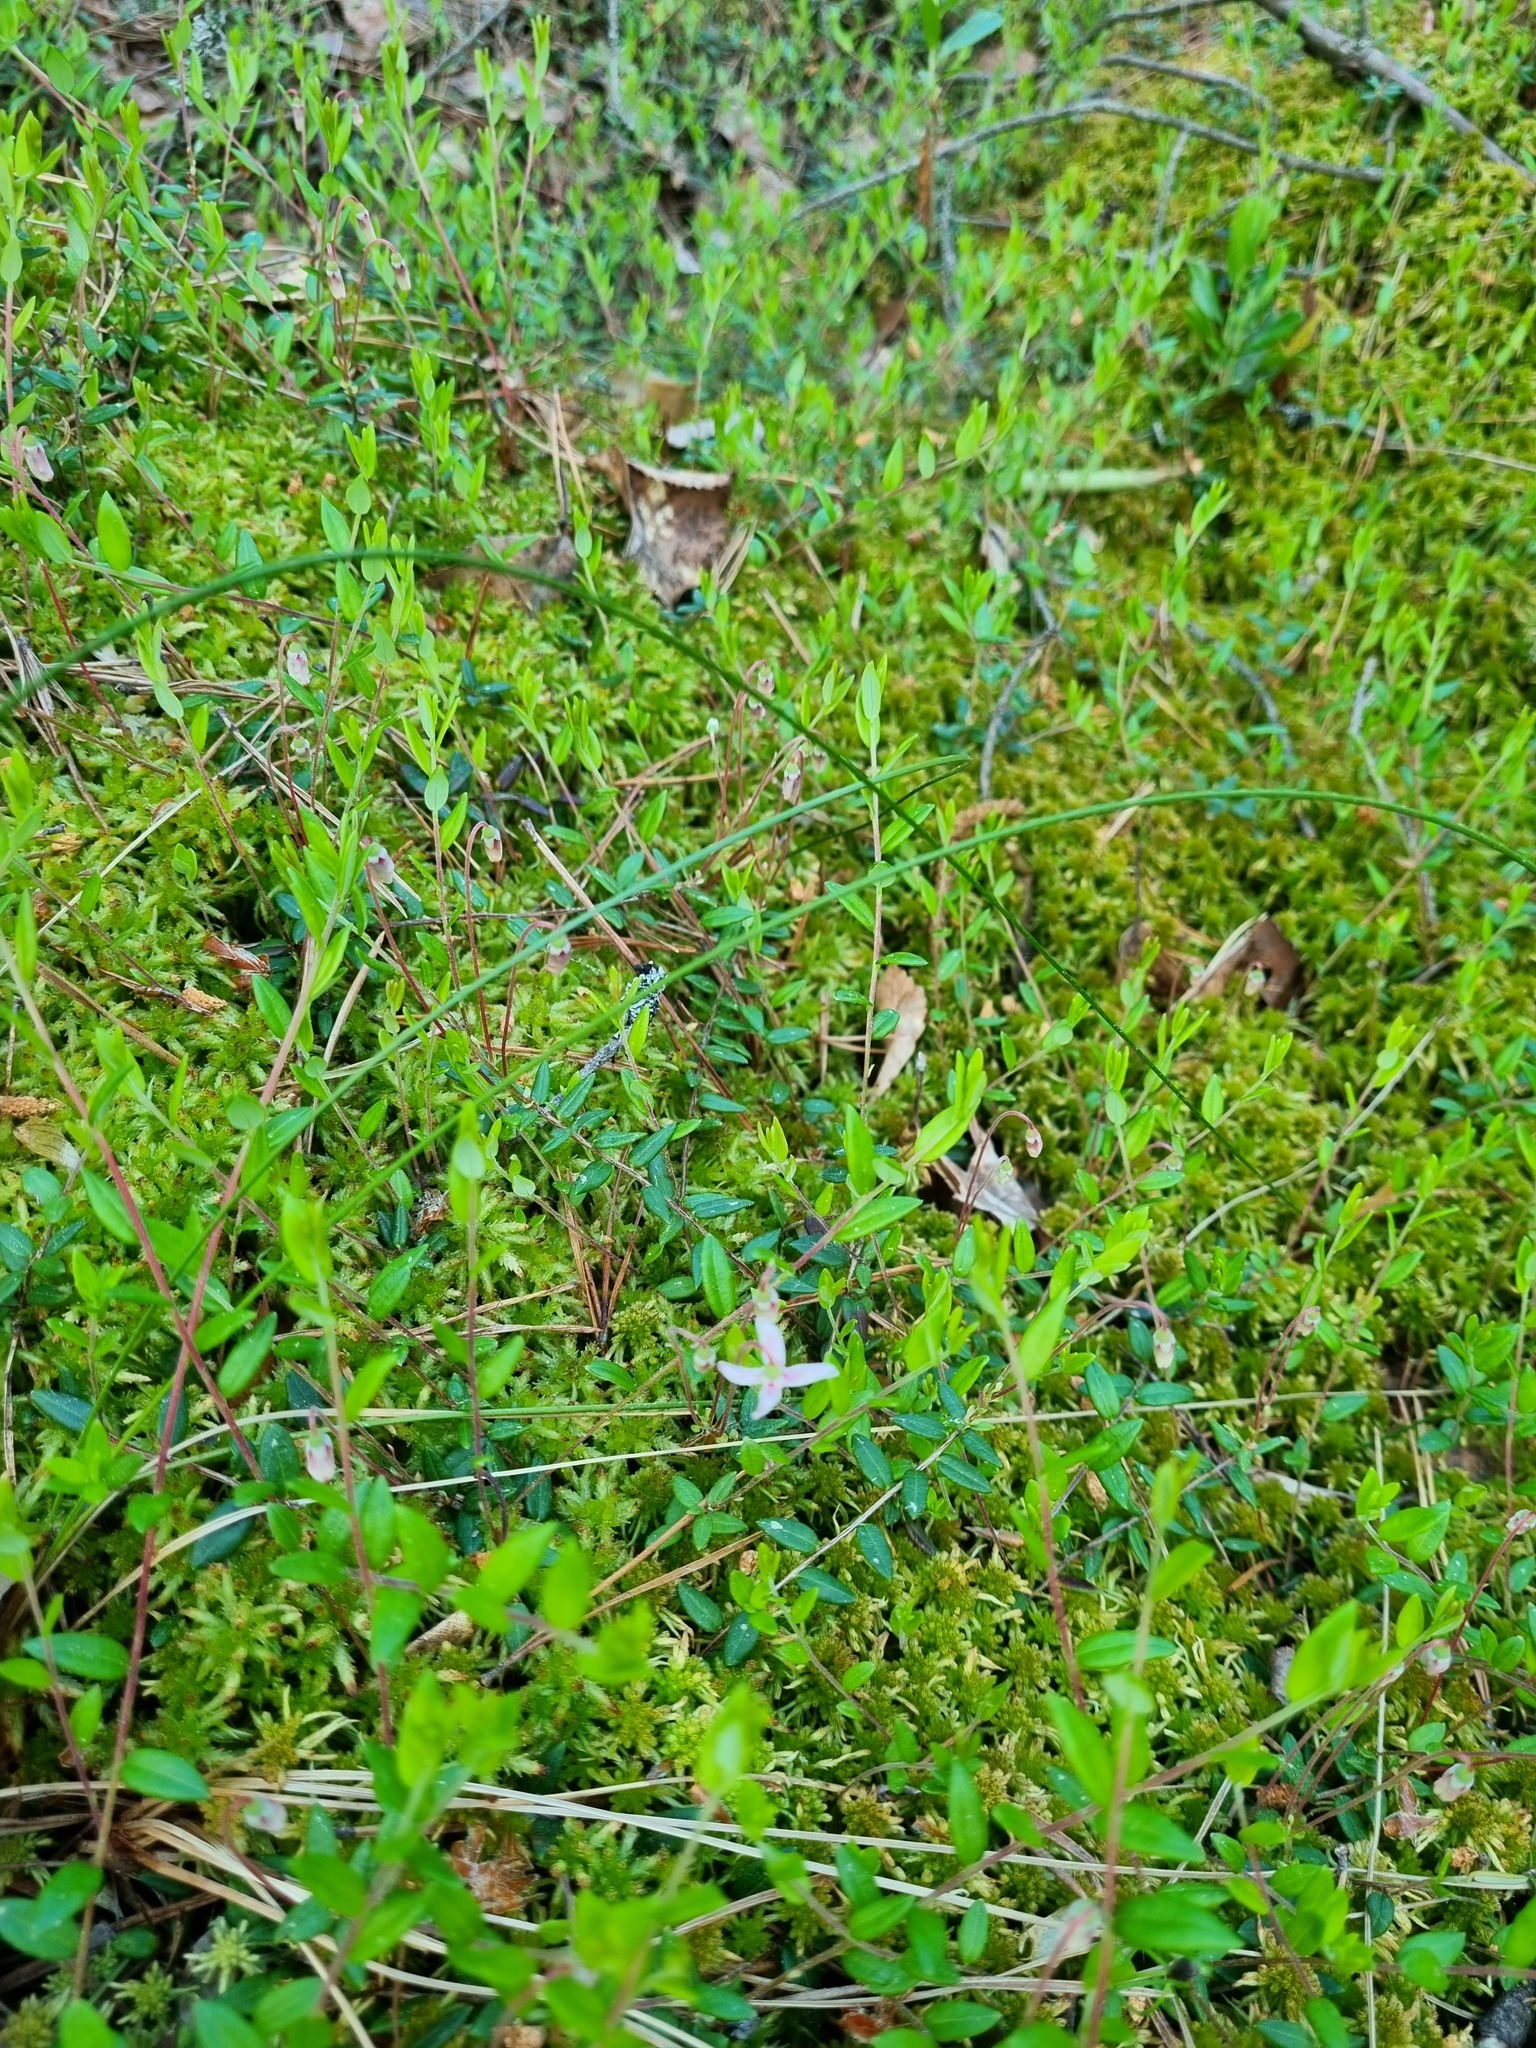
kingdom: Plantae
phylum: Tracheophyta
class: Magnoliopsida
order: Ericales
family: Ericaceae
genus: Vaccinium
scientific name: Vaccinium oxycoccos
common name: Cranberry
